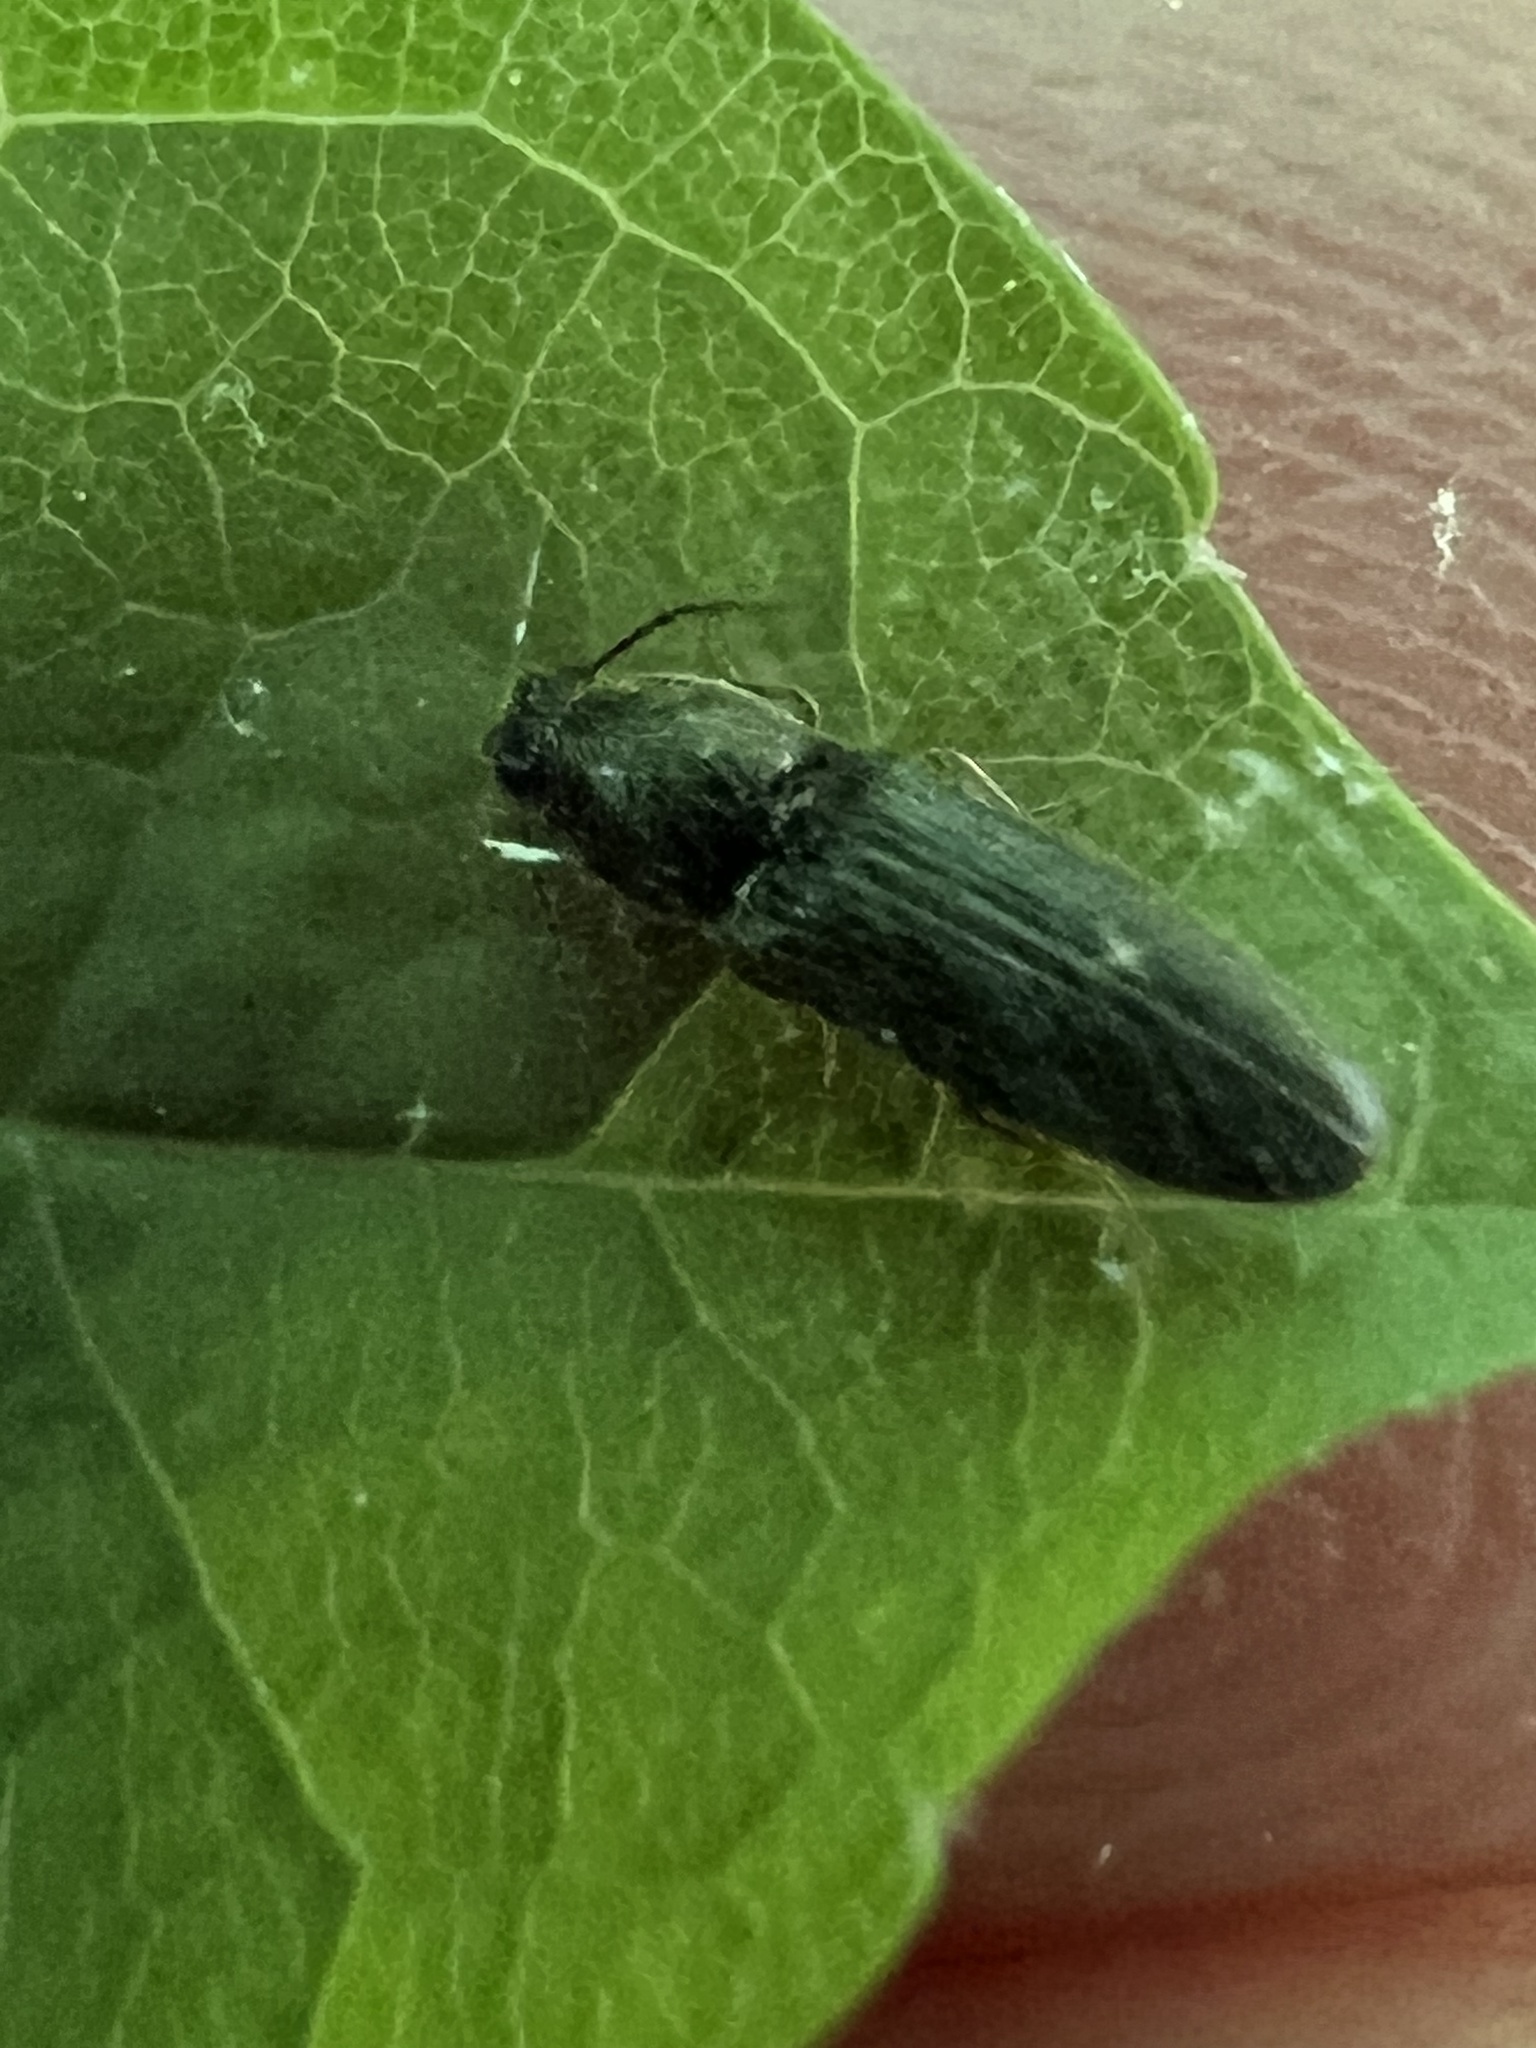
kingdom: Animalia
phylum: Arthropoda
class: Insecta
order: Coleoptera
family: Elateridae
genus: Limonius
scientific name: Limonius quercinus
